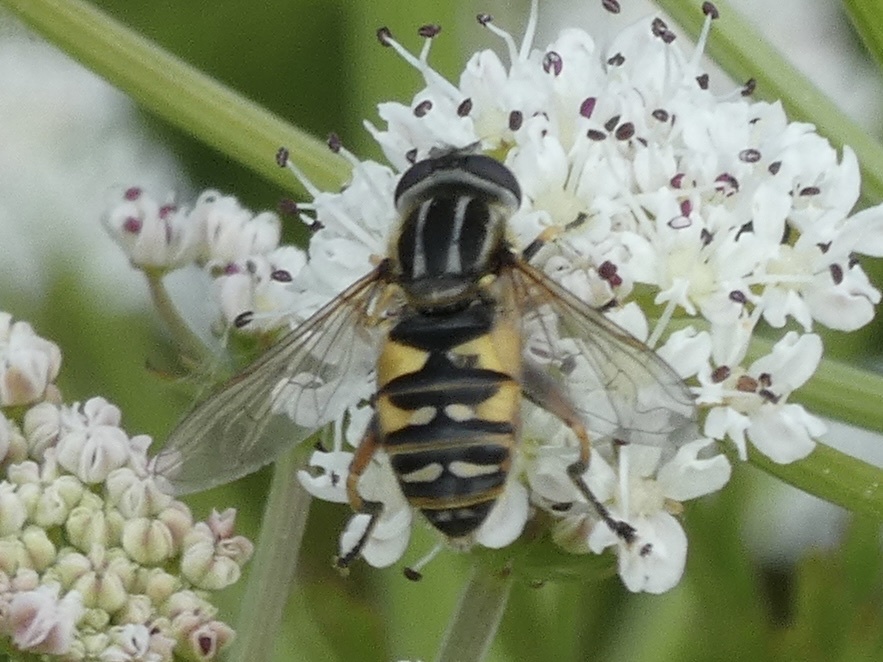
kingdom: Animalia
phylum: Arthropoda
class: Insecta
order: Diptera
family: Syrphidae
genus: Helophilus
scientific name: Helophilus pendulus
